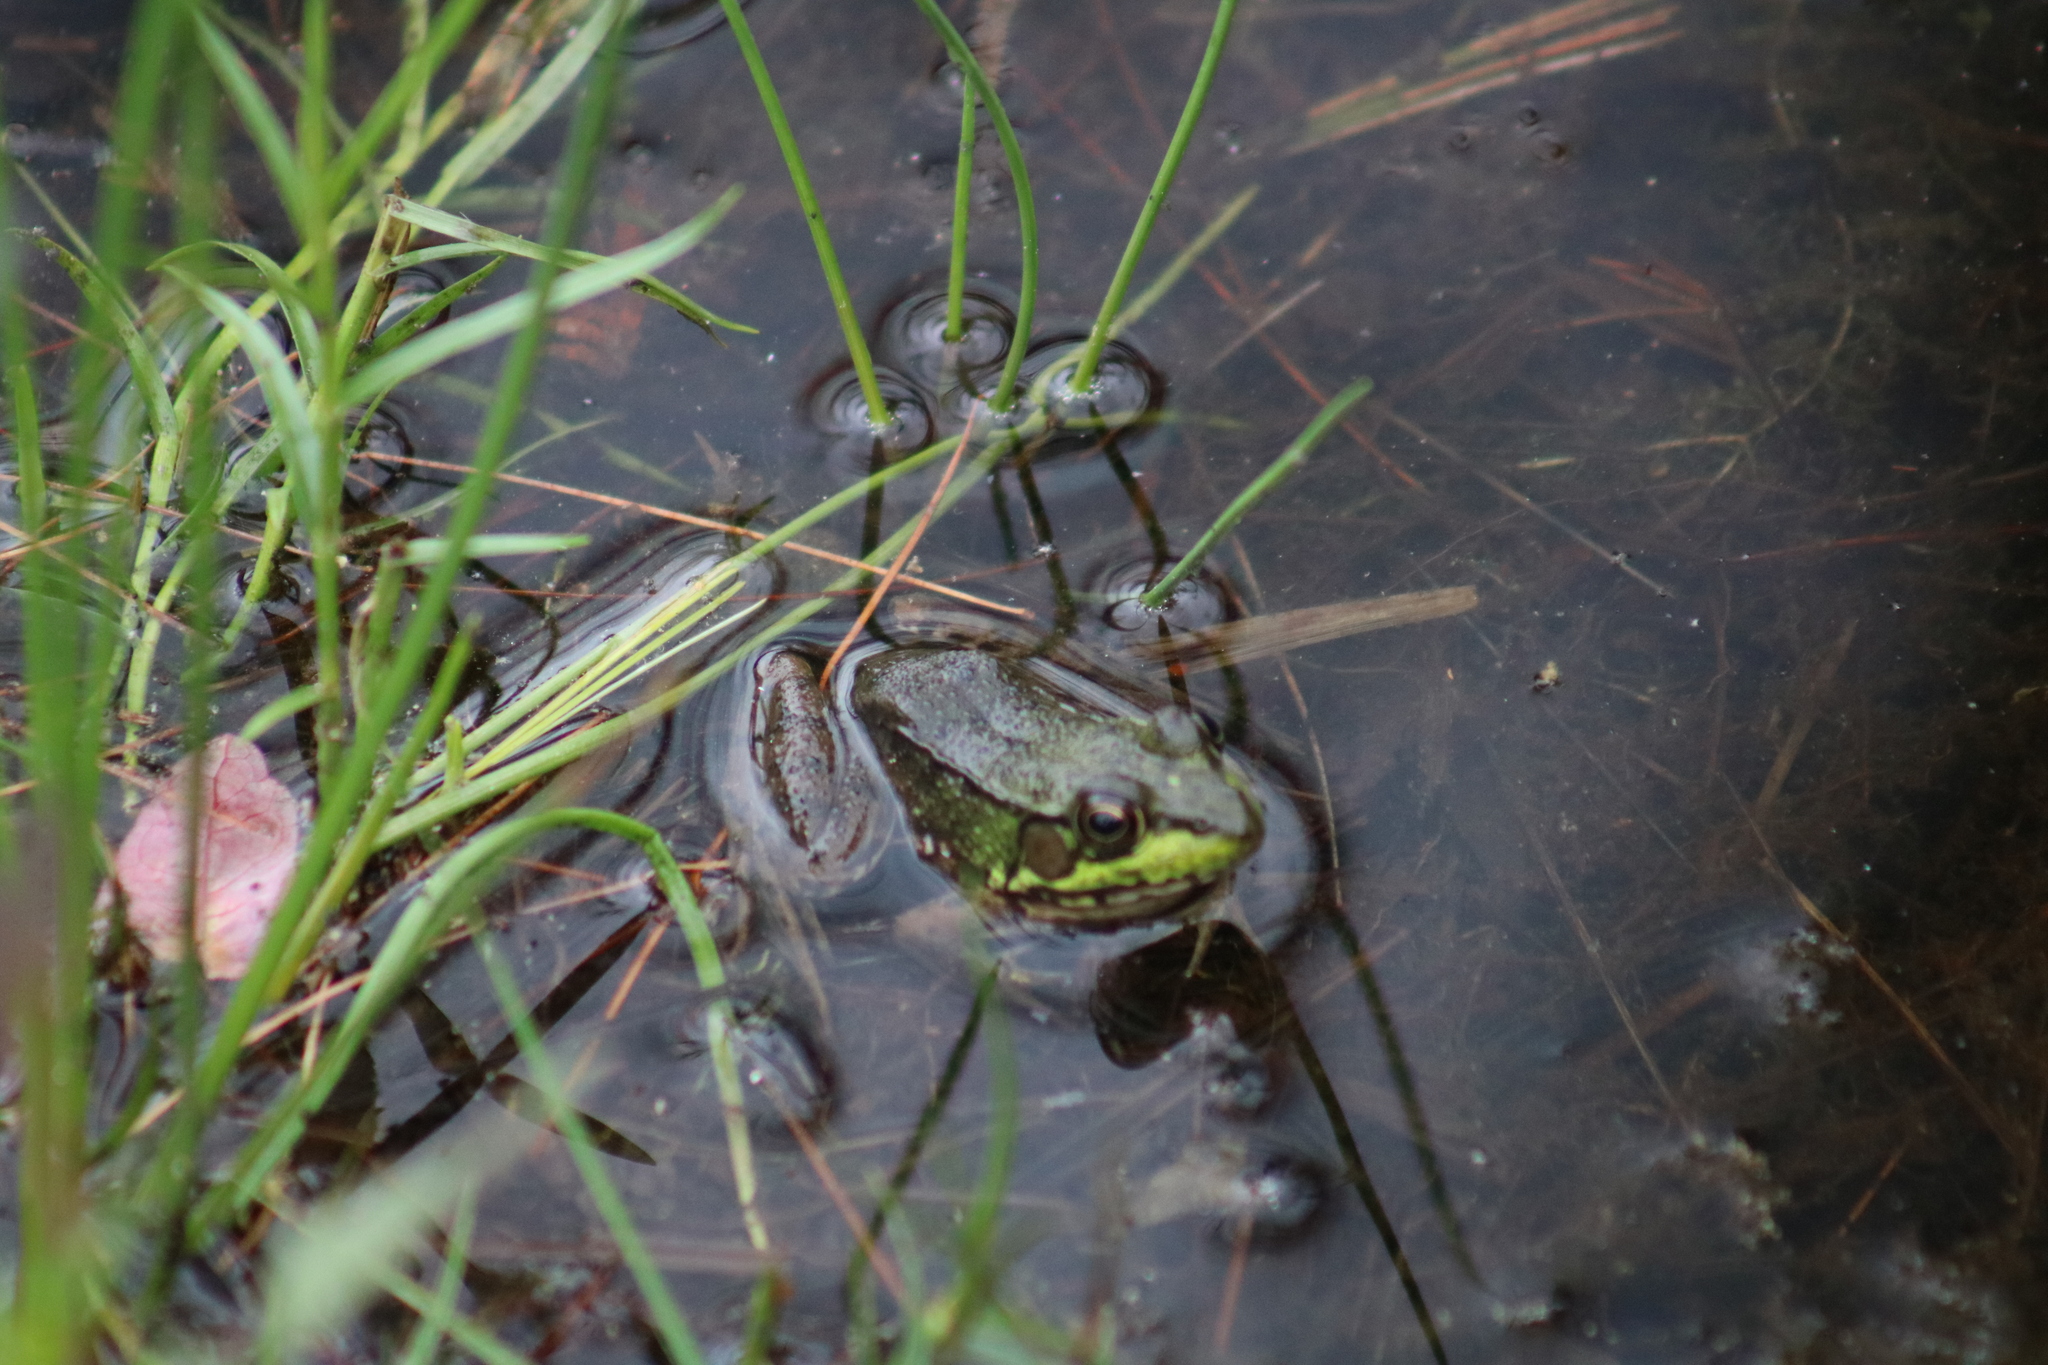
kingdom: Animalia
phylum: Chordata
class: Amphibia
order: Anura
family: Ranidae
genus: Lithobates
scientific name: Lithobates clamitans
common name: Green frog
